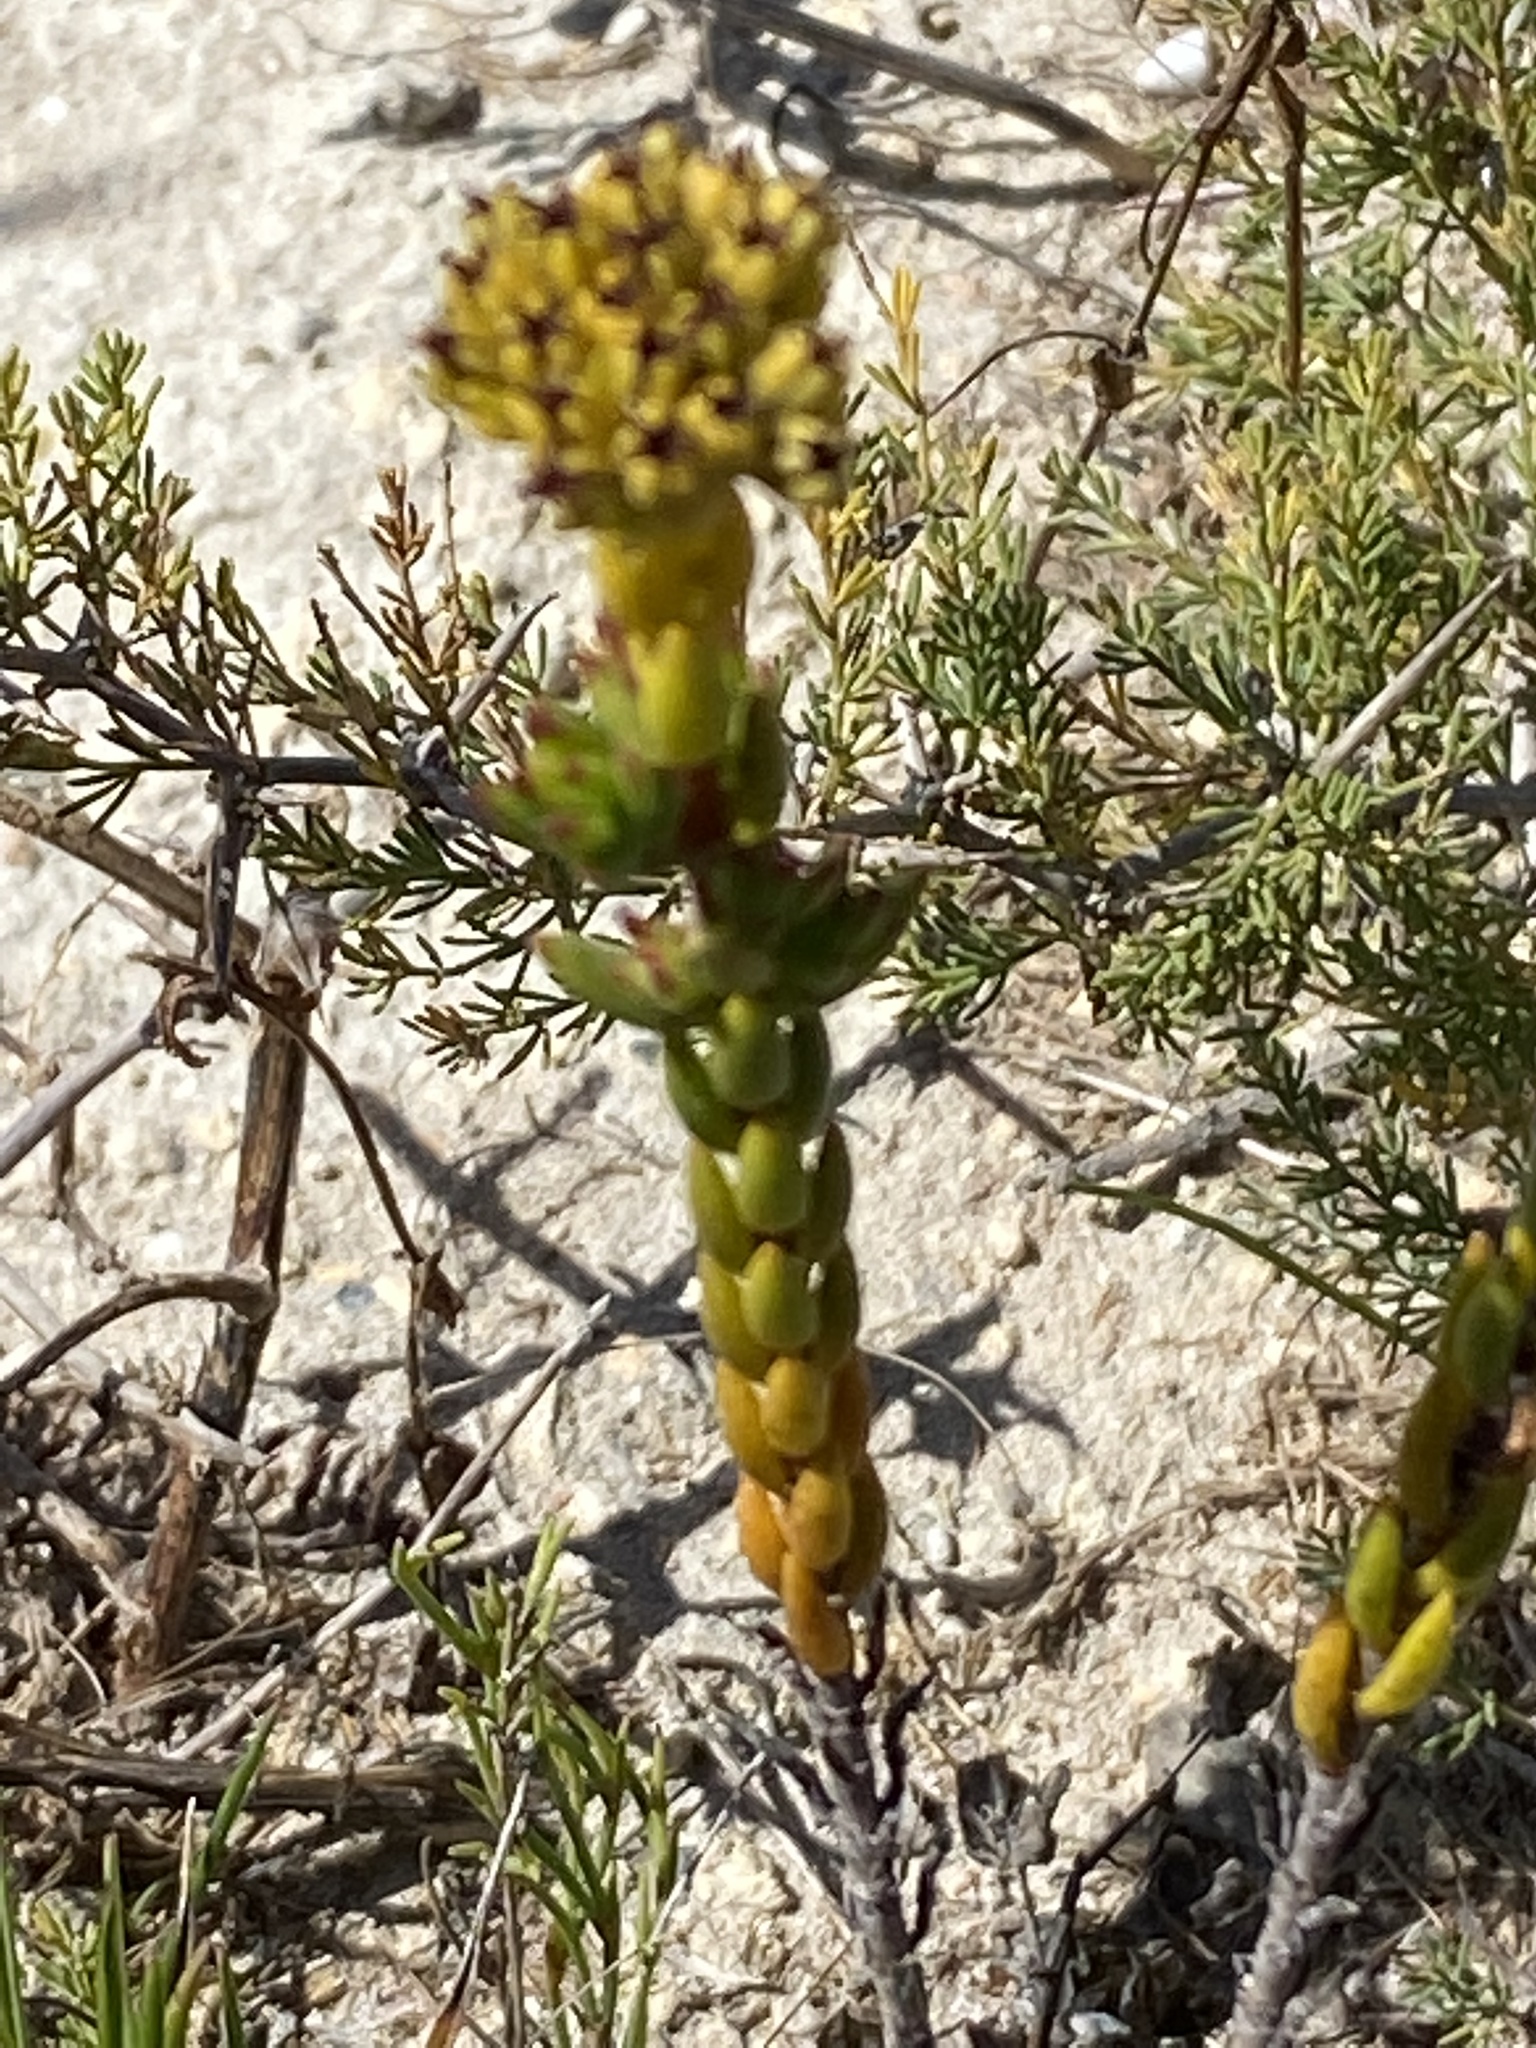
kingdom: Plantae
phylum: Tracheophyta
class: Magnoliopsida
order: Saxifragales
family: Crassulaceae
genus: Crassula
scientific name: Crassula subulata
